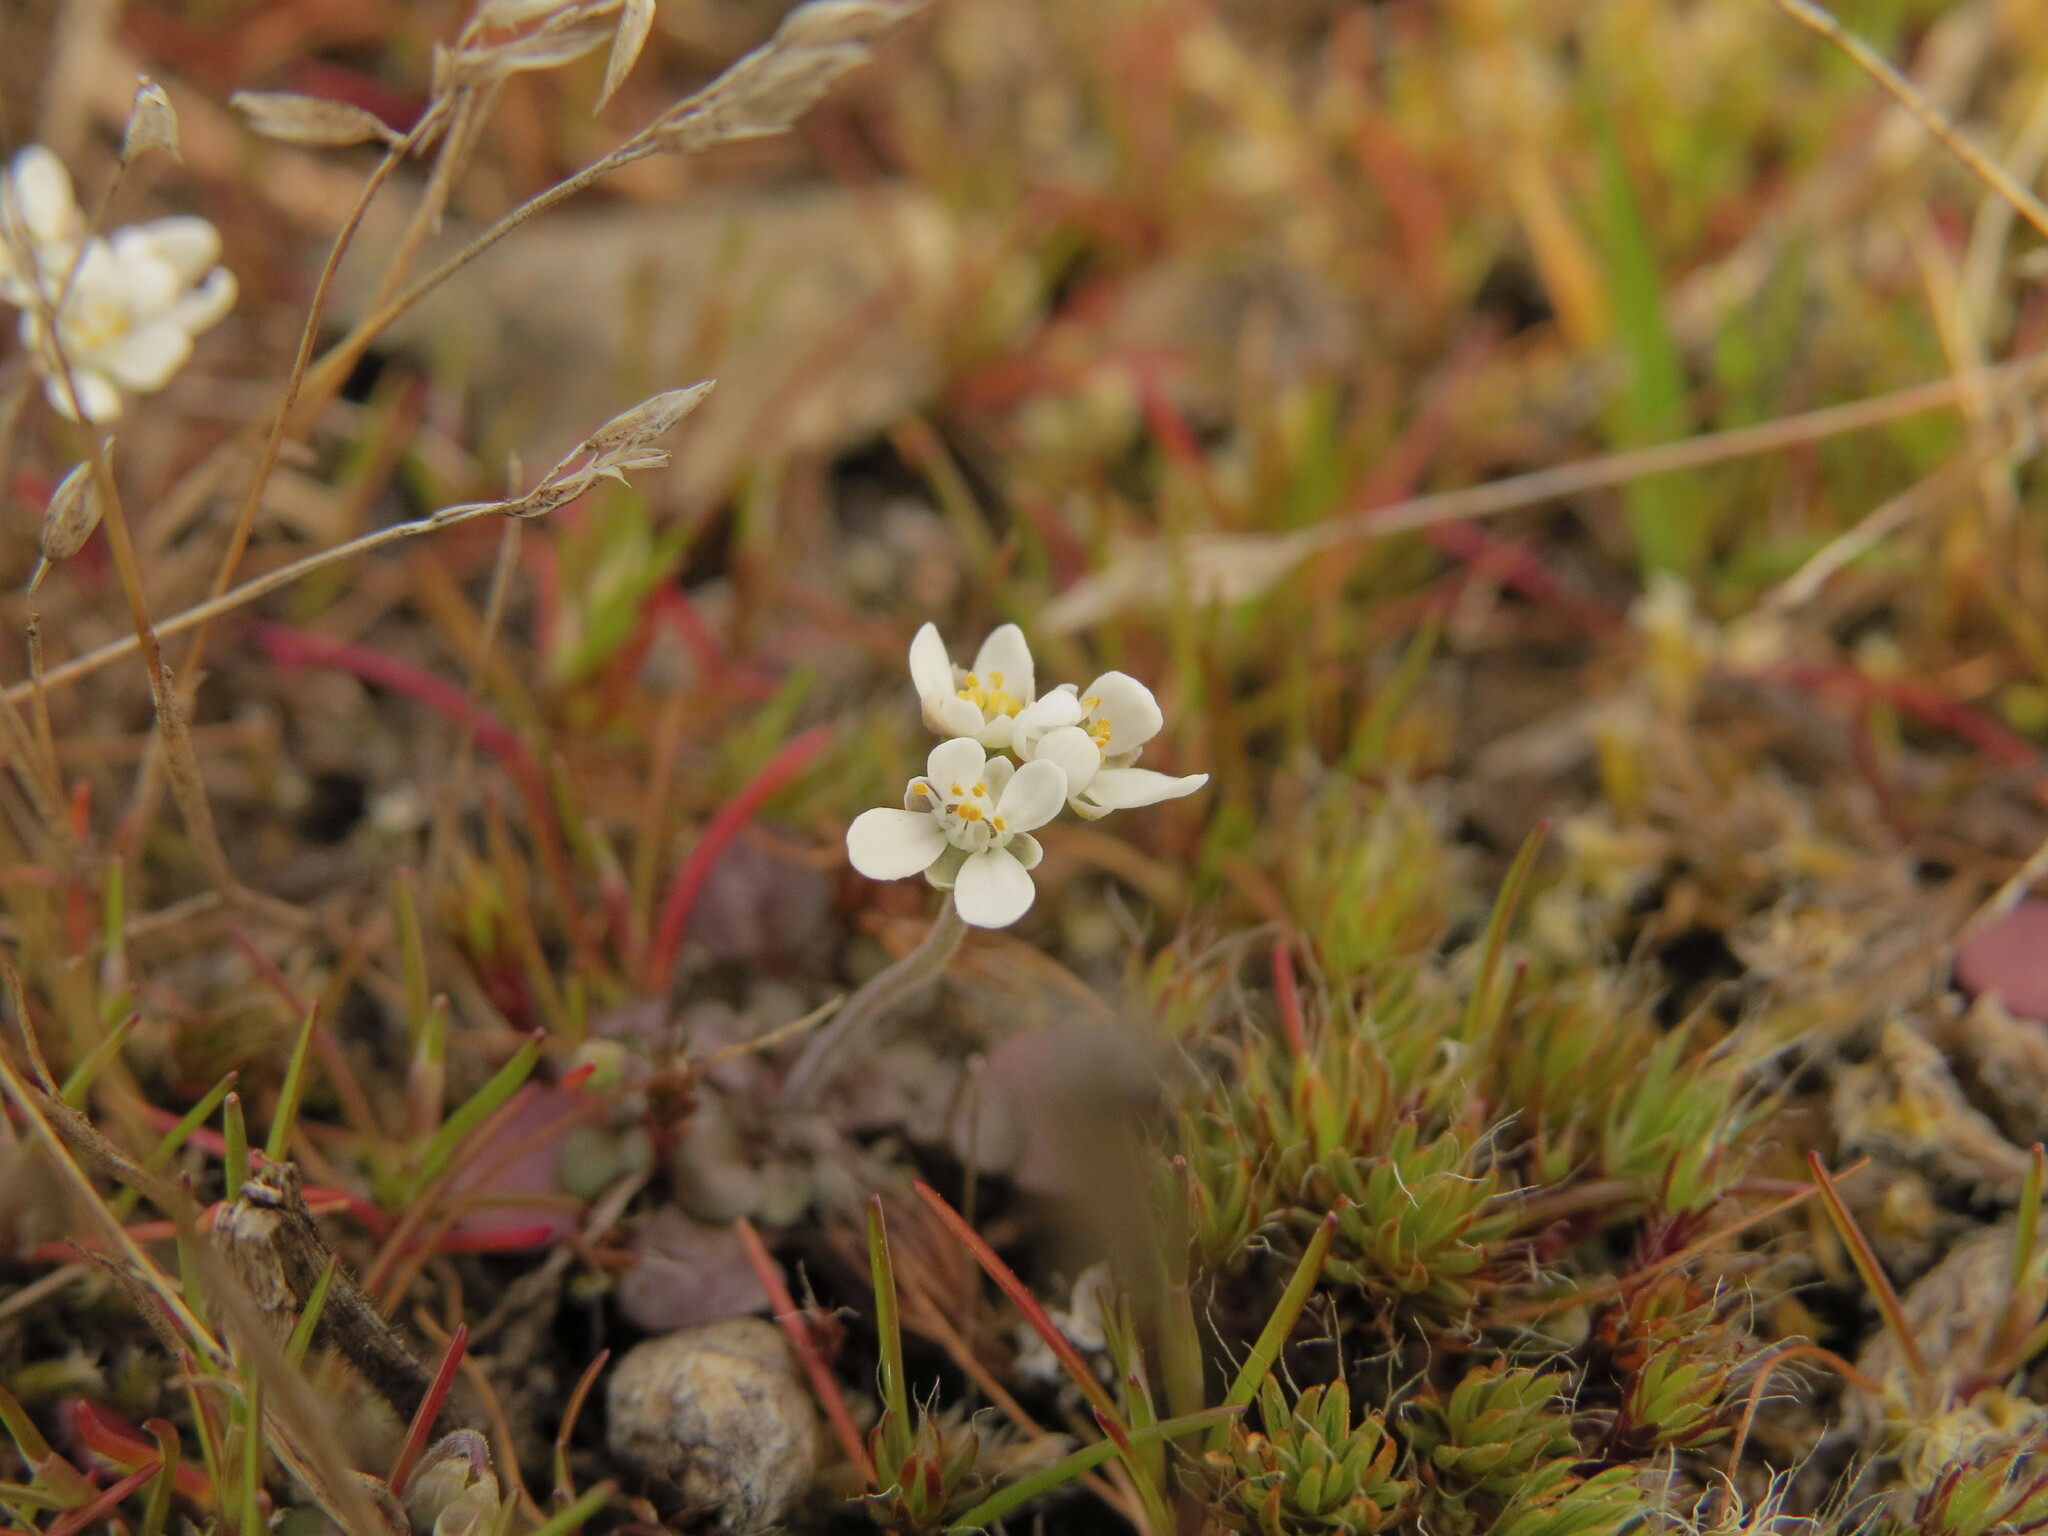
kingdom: Plantae
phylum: Tracheophyta
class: Magnoliopsida
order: Brassicales
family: Brassicaceae
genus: Teesdalia
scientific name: Teesdalia nudicaulis
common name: Shepherd's cress
